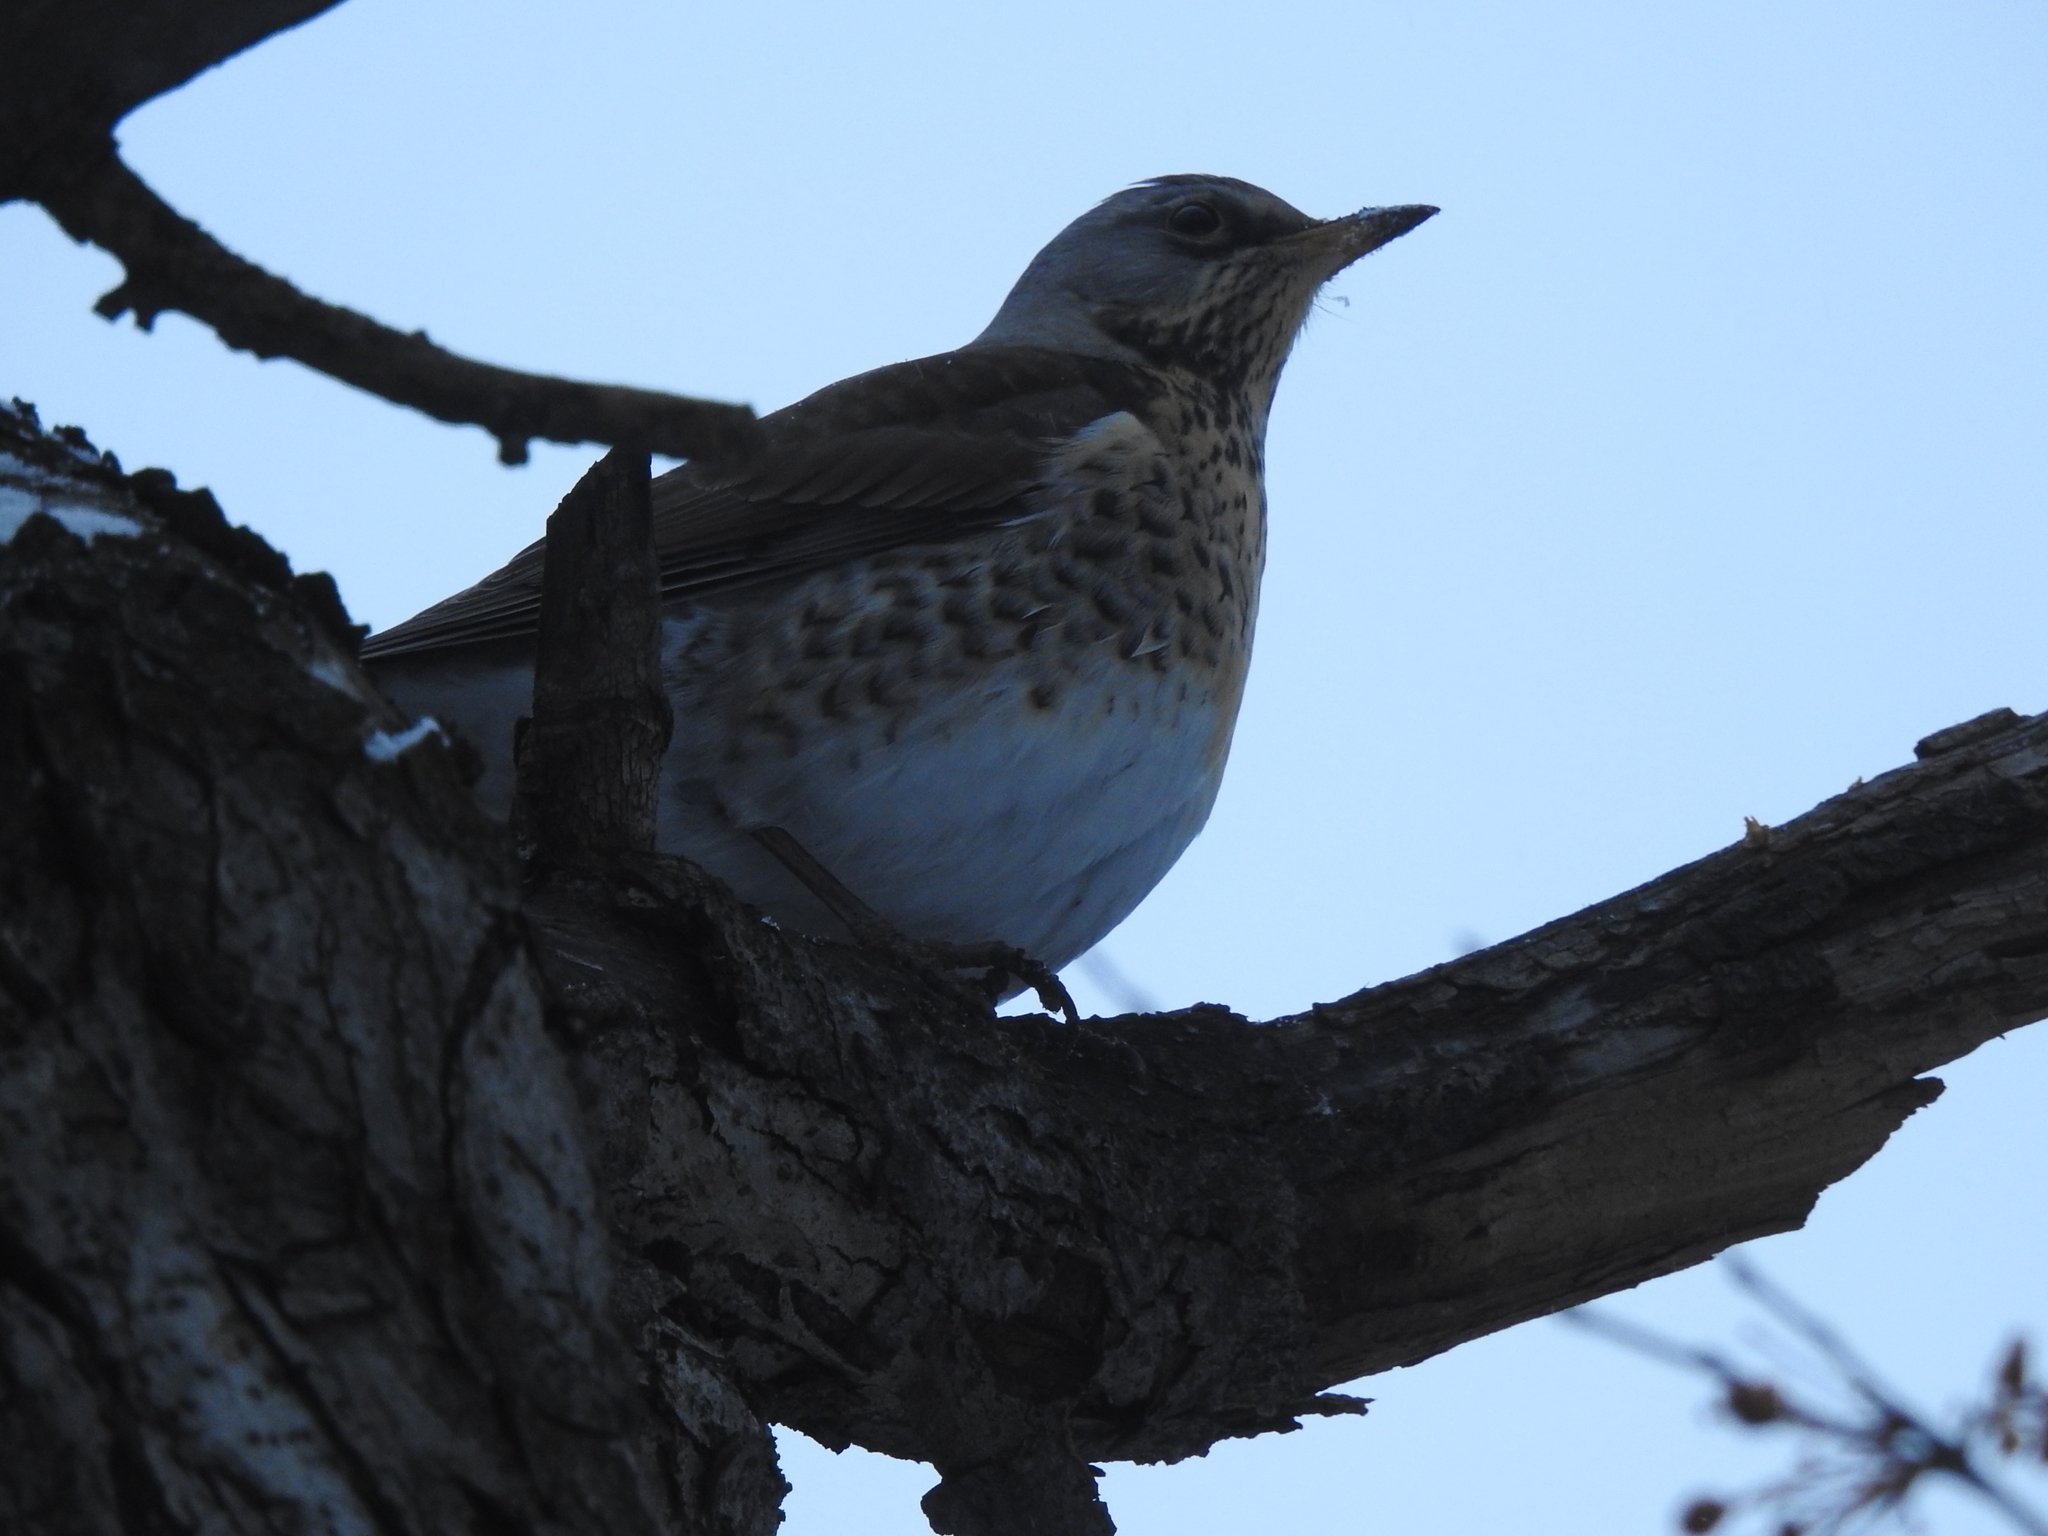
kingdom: Animalia
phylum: Chordata
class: Aves
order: Passeriformes
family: Turdidae
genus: Turdus
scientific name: Turdus pilaris
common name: Fieldfare
